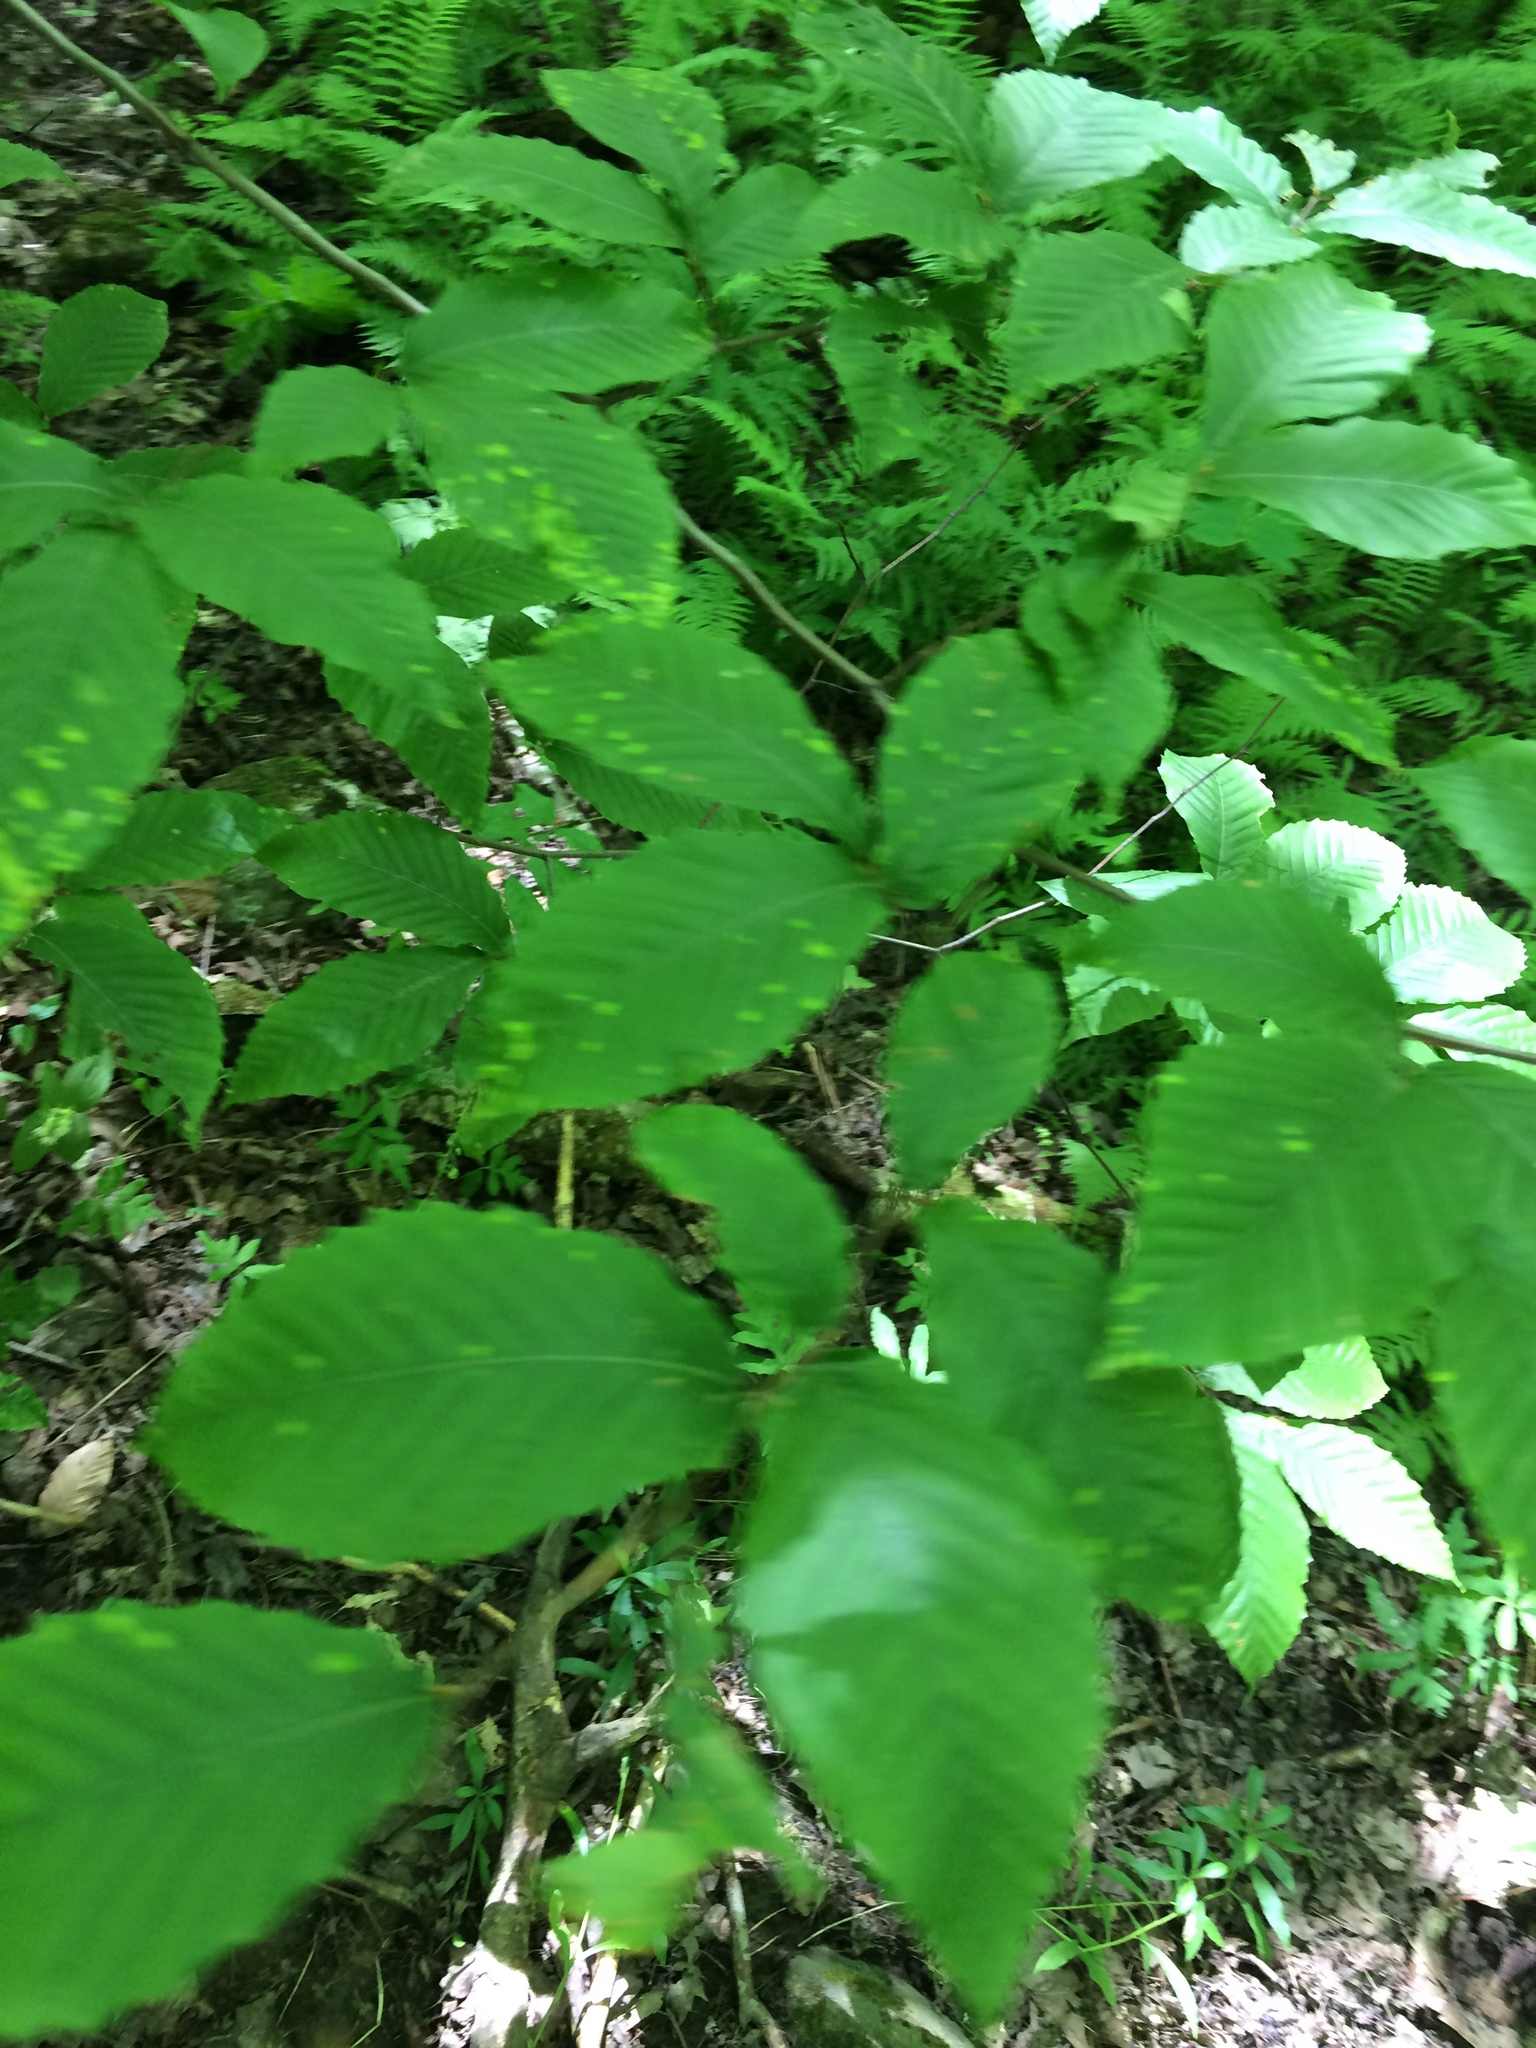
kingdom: Plantae
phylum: Tracheophyta
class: Magnoliopsida
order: Fagales
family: Fagaceae
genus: Fagus
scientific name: Fagus grandifolia
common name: American beech
